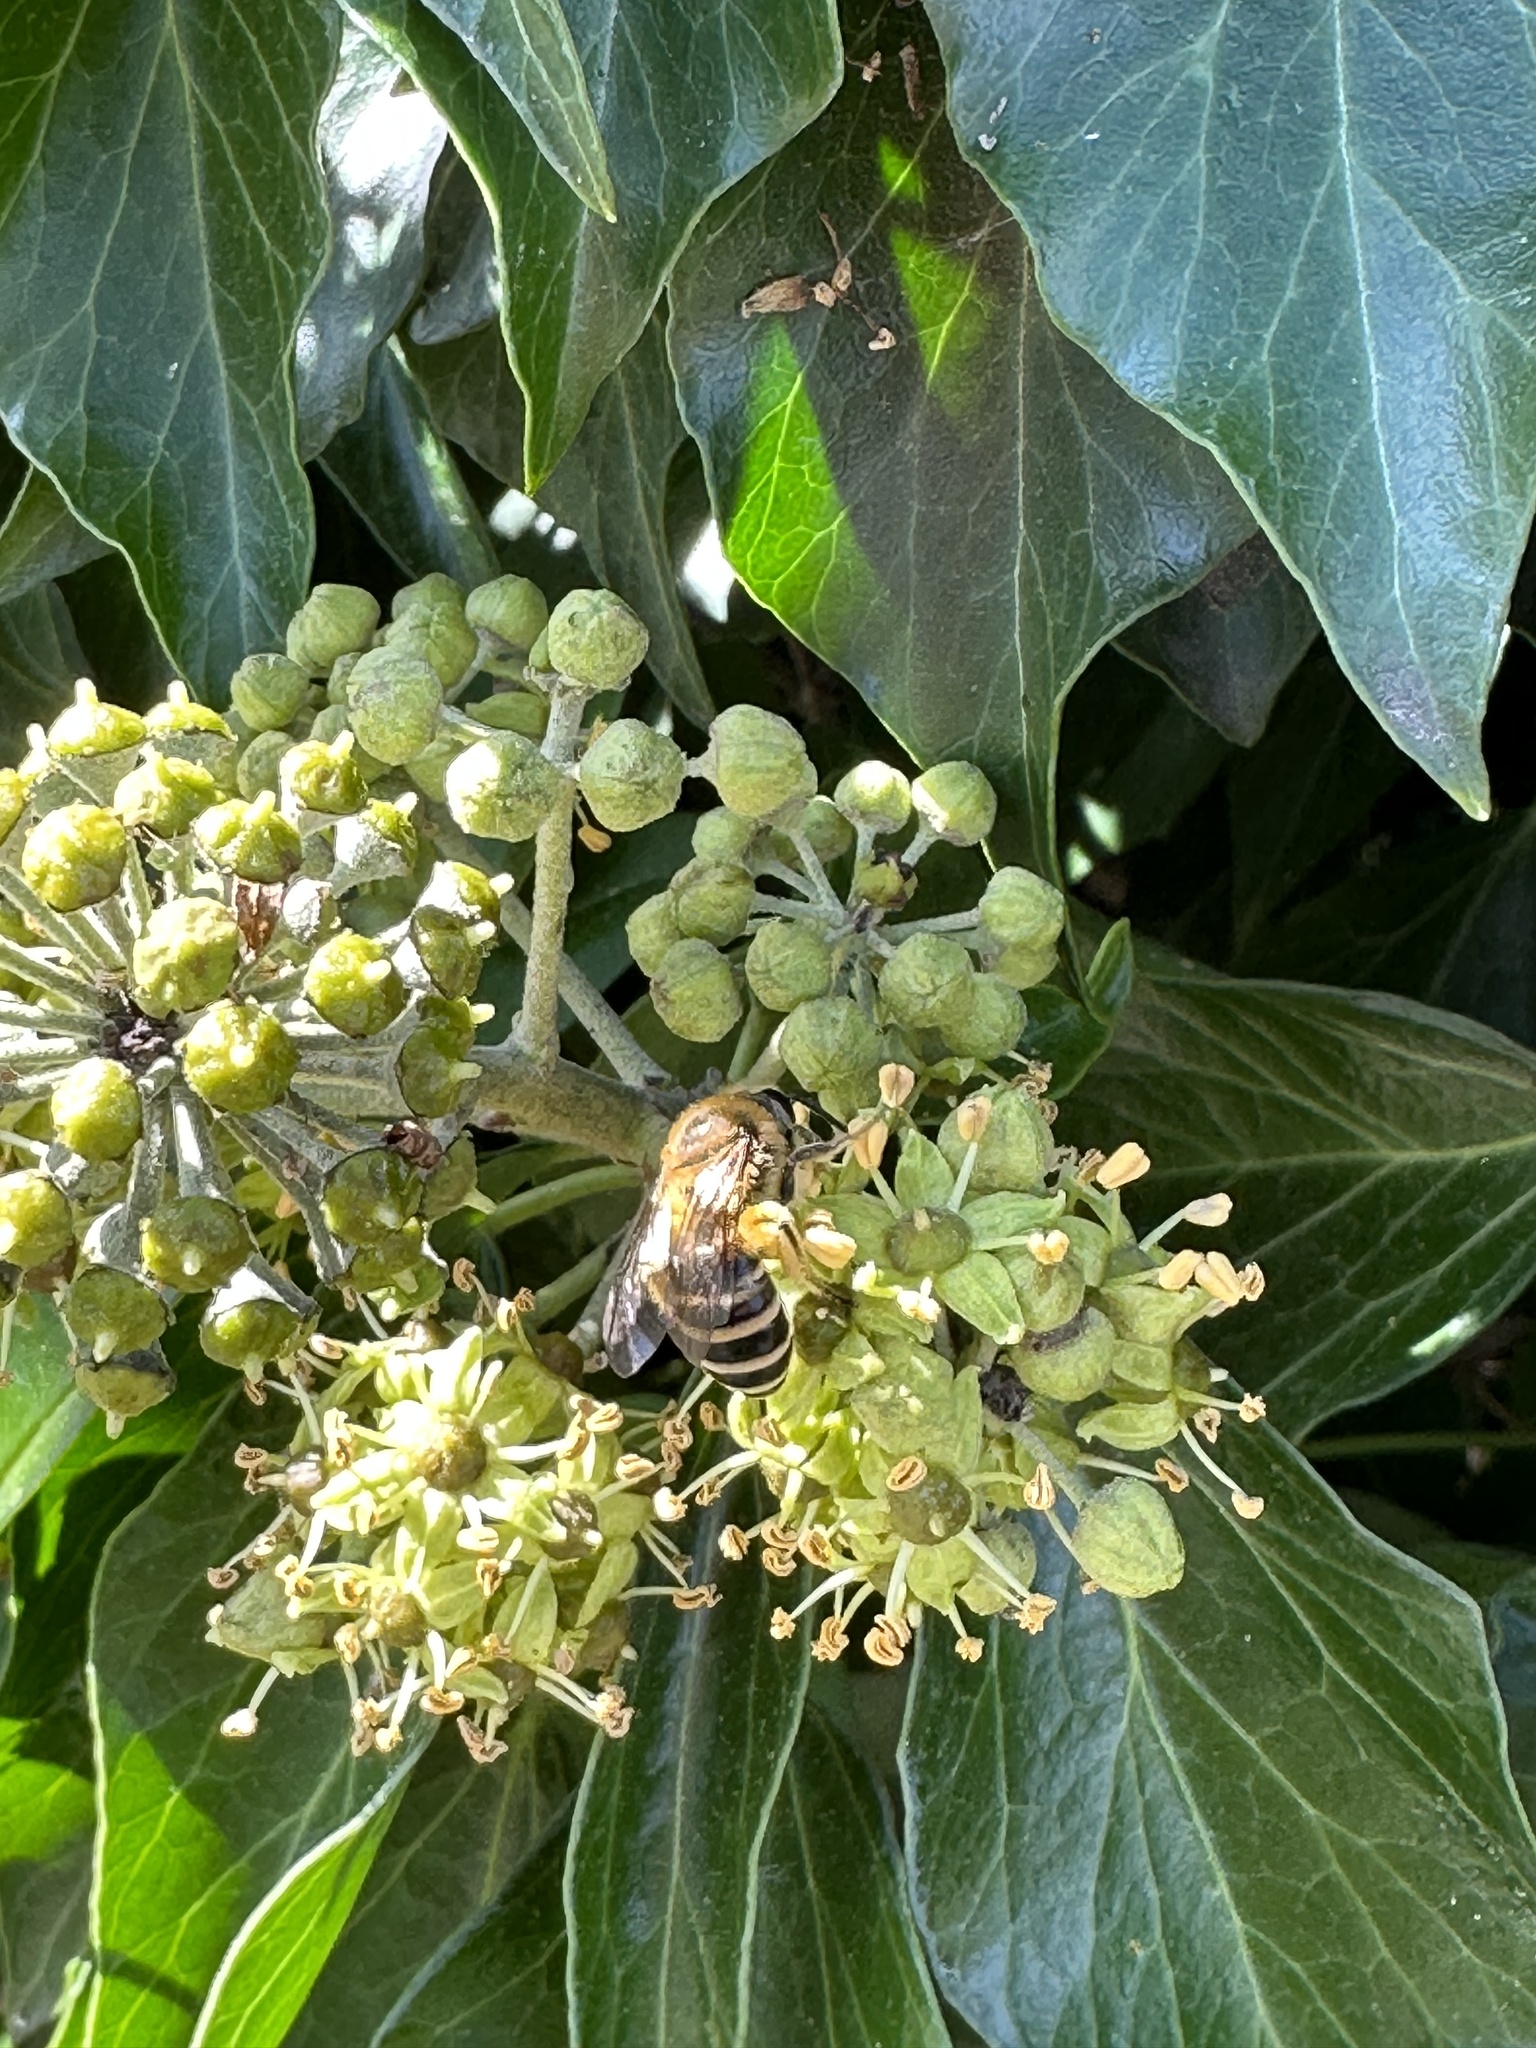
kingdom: Animalia
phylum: Arthropoda
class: Insecta
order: Hymenoptera
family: Colletidae
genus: Colletes
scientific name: Colletes hederae
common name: Ivy bee
